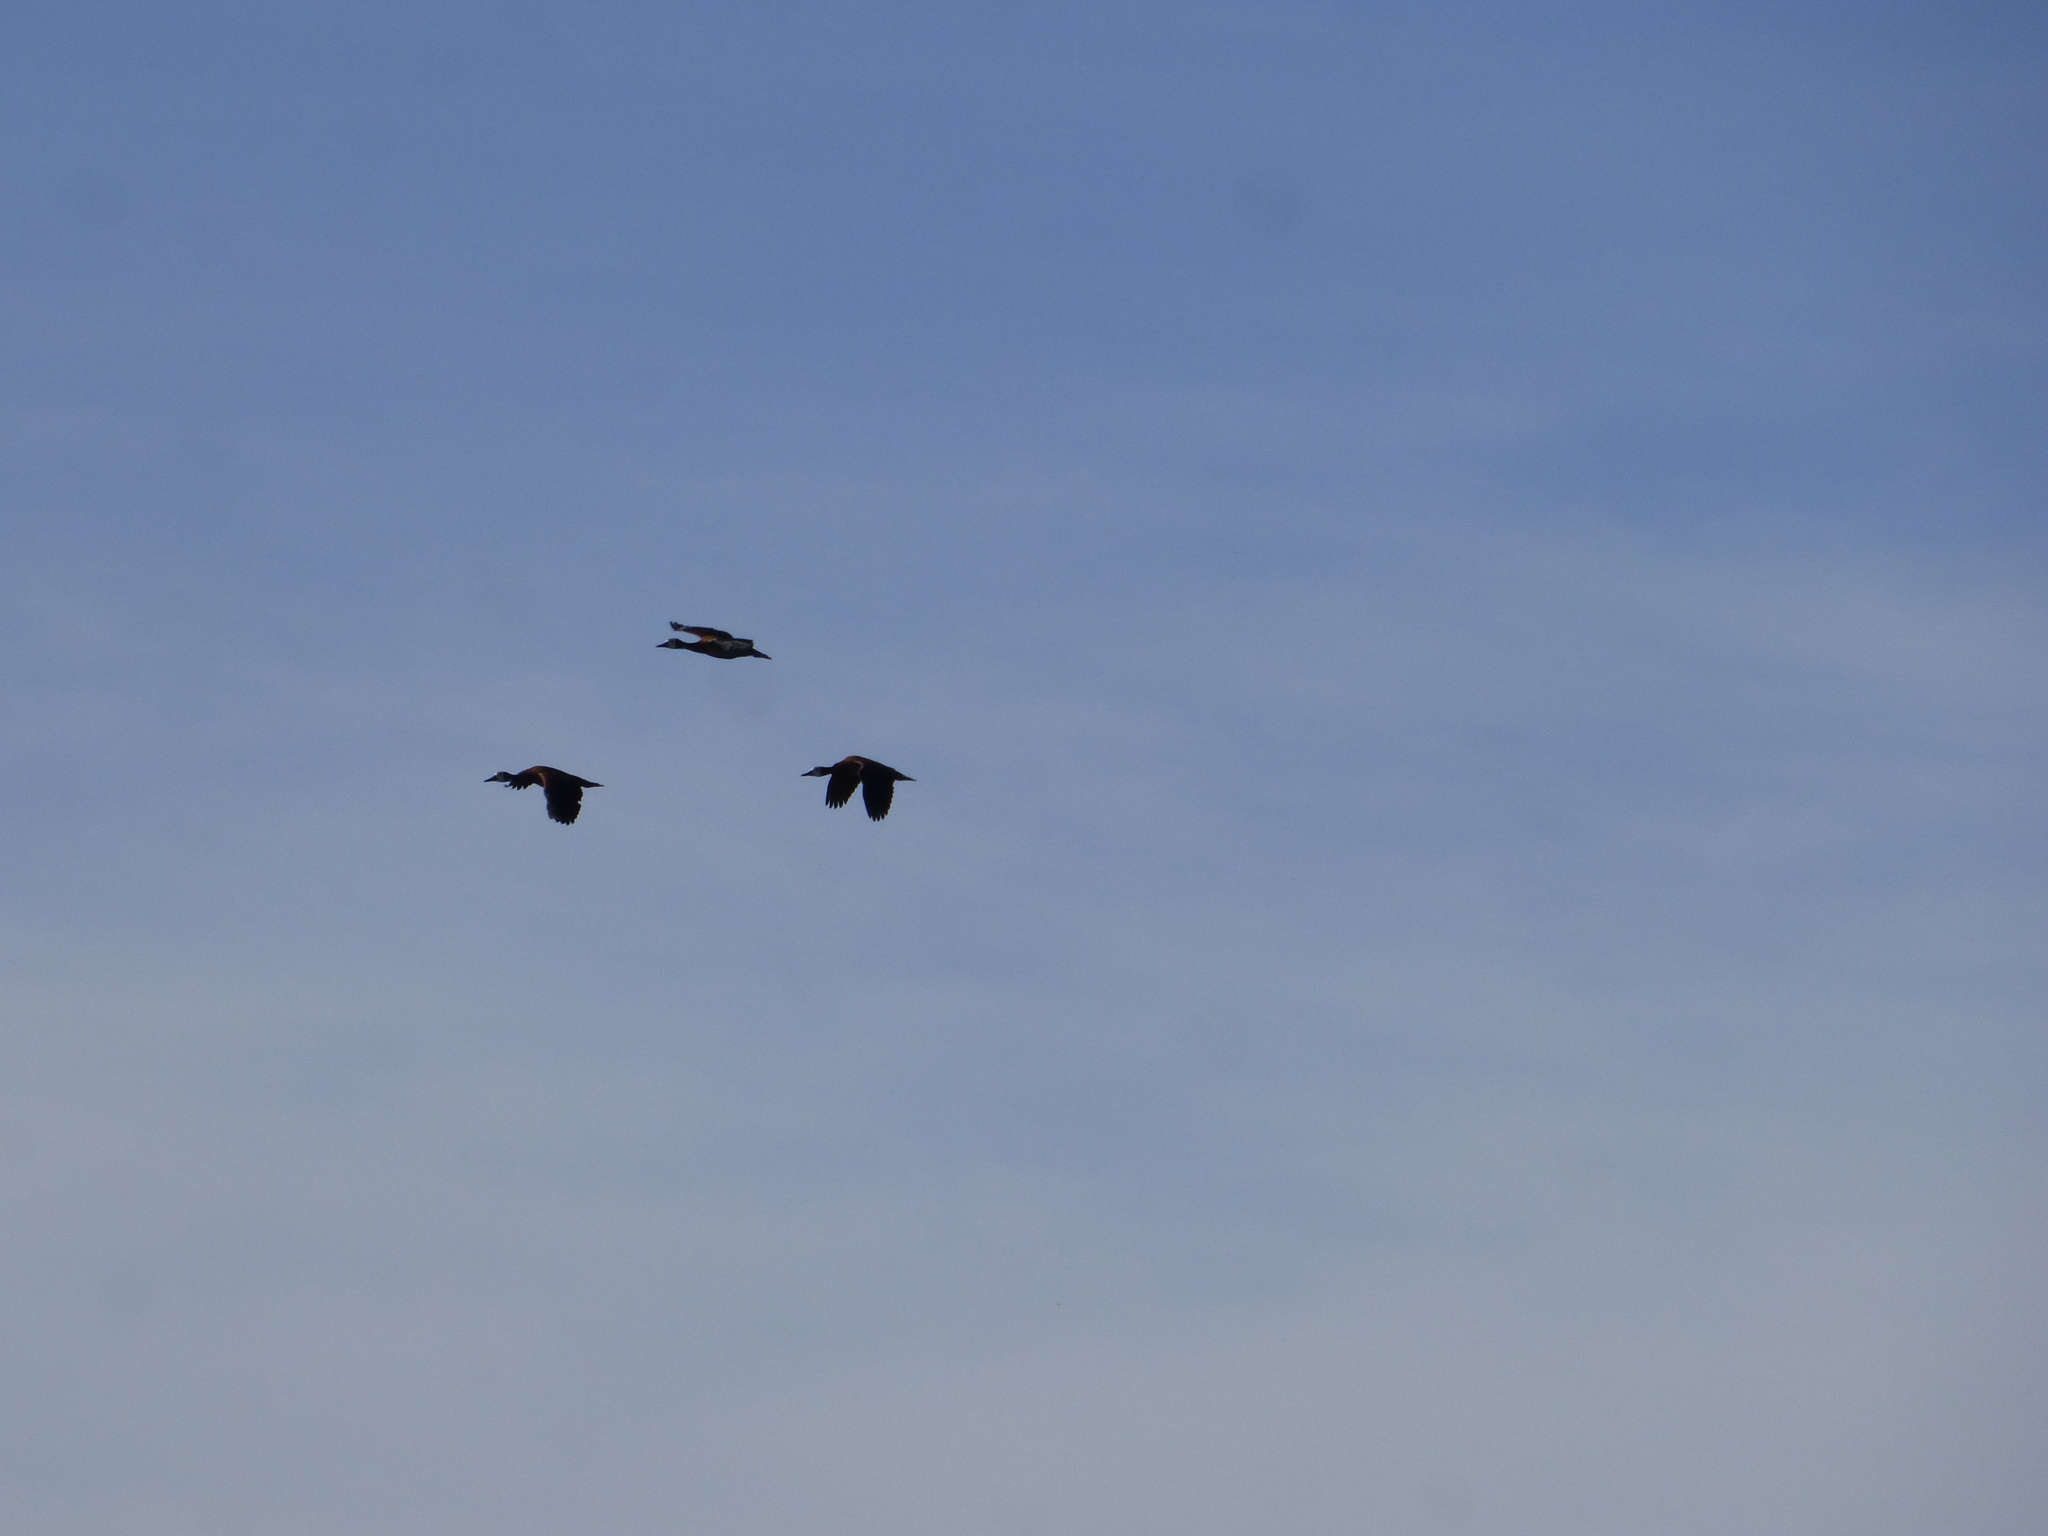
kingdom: Animalia
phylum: Chordata
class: Aves
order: Anseriformes
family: Anatidae
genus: Dendrocygna
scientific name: Dendrocygna viduata
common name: White-faced whistling duck
